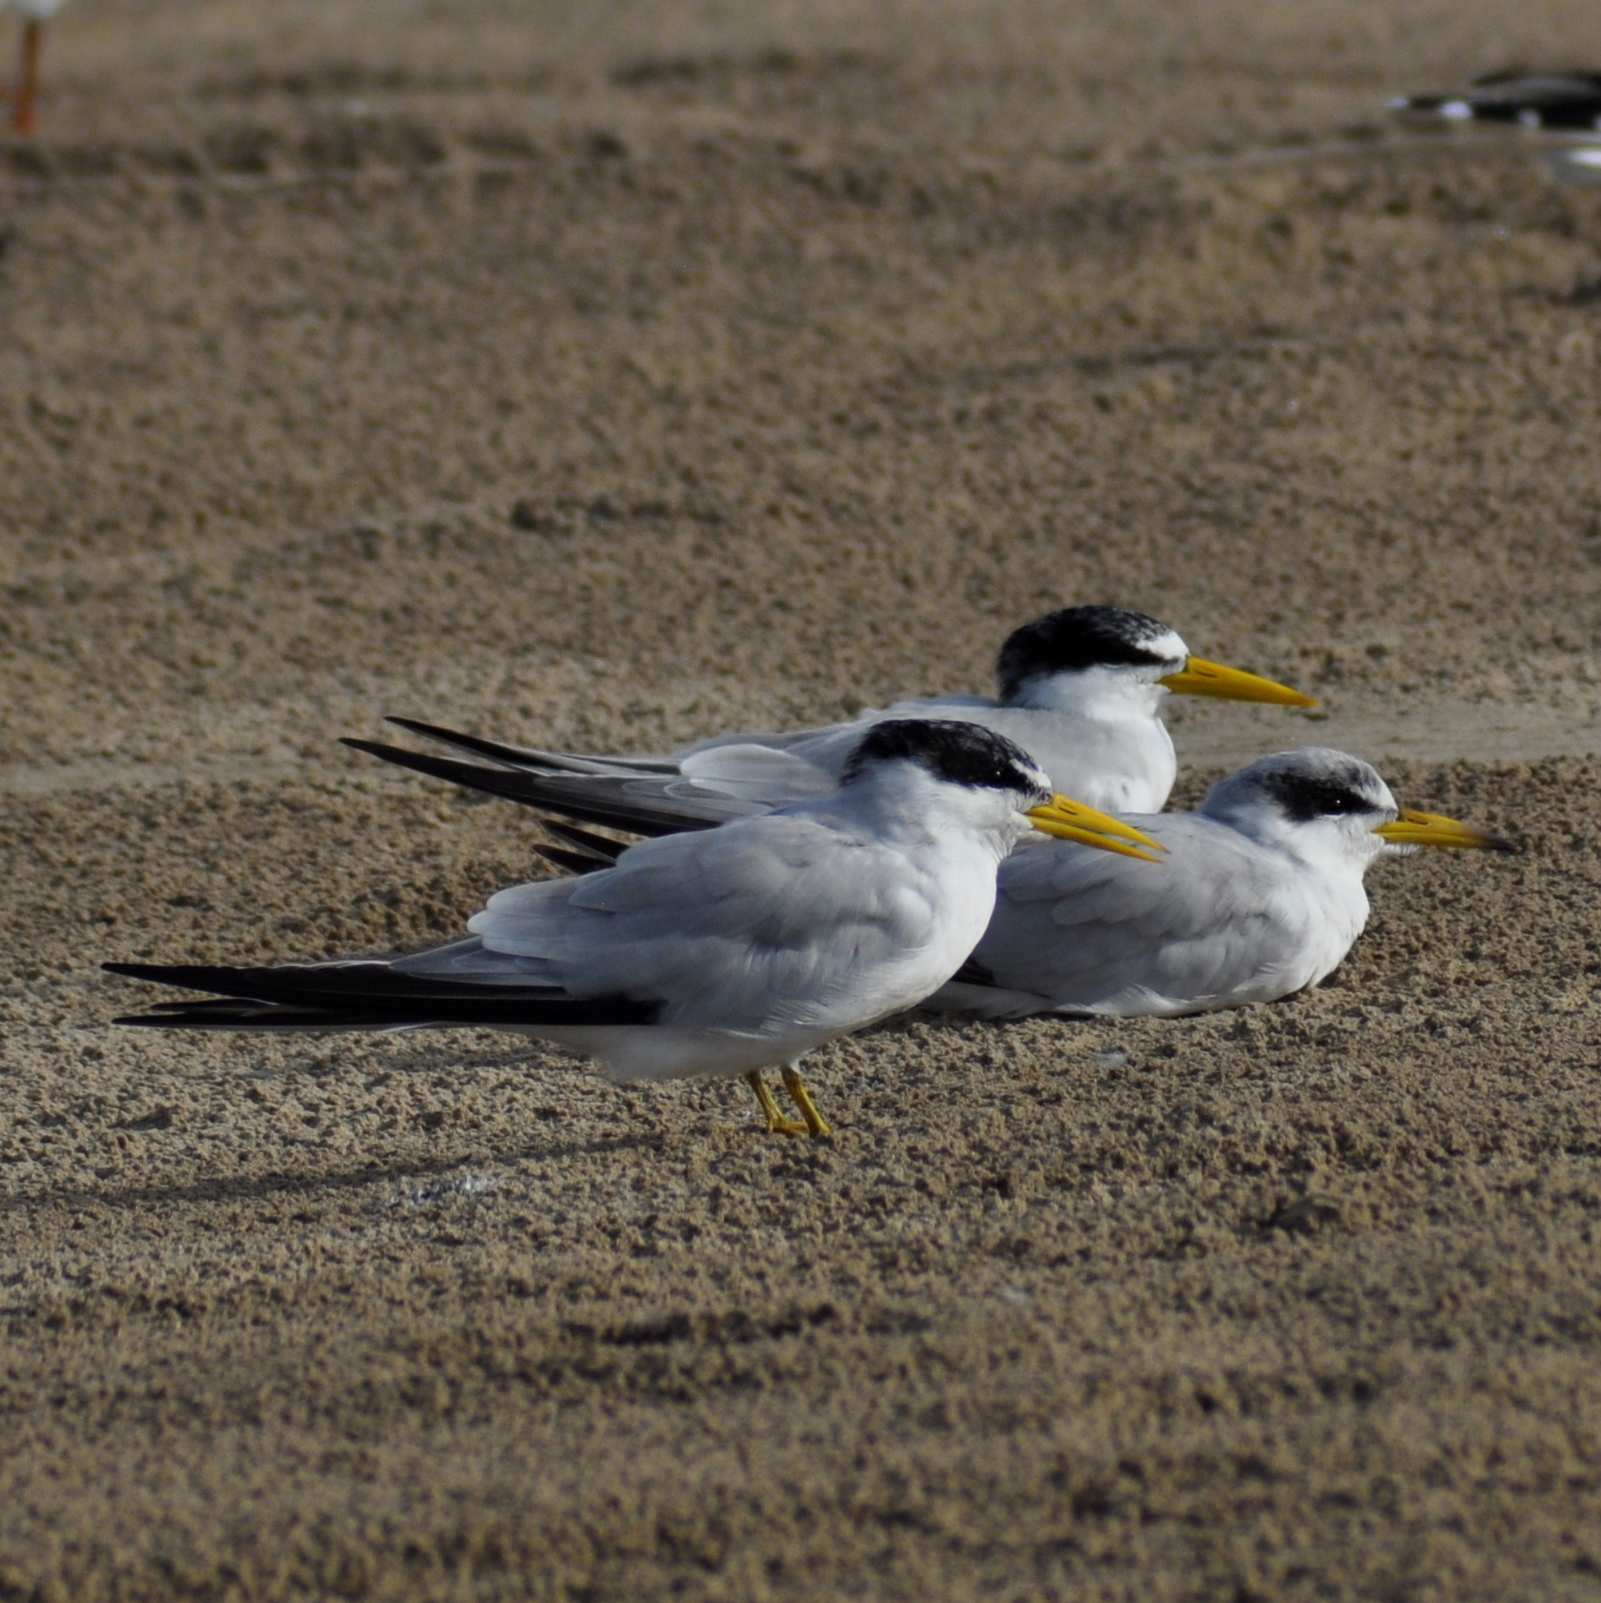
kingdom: Animalia
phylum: Chordata
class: Aves
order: Charadriiformes
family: Laridae
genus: Sternula
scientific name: Sternula superciliaris
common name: Yellow-billed tern
